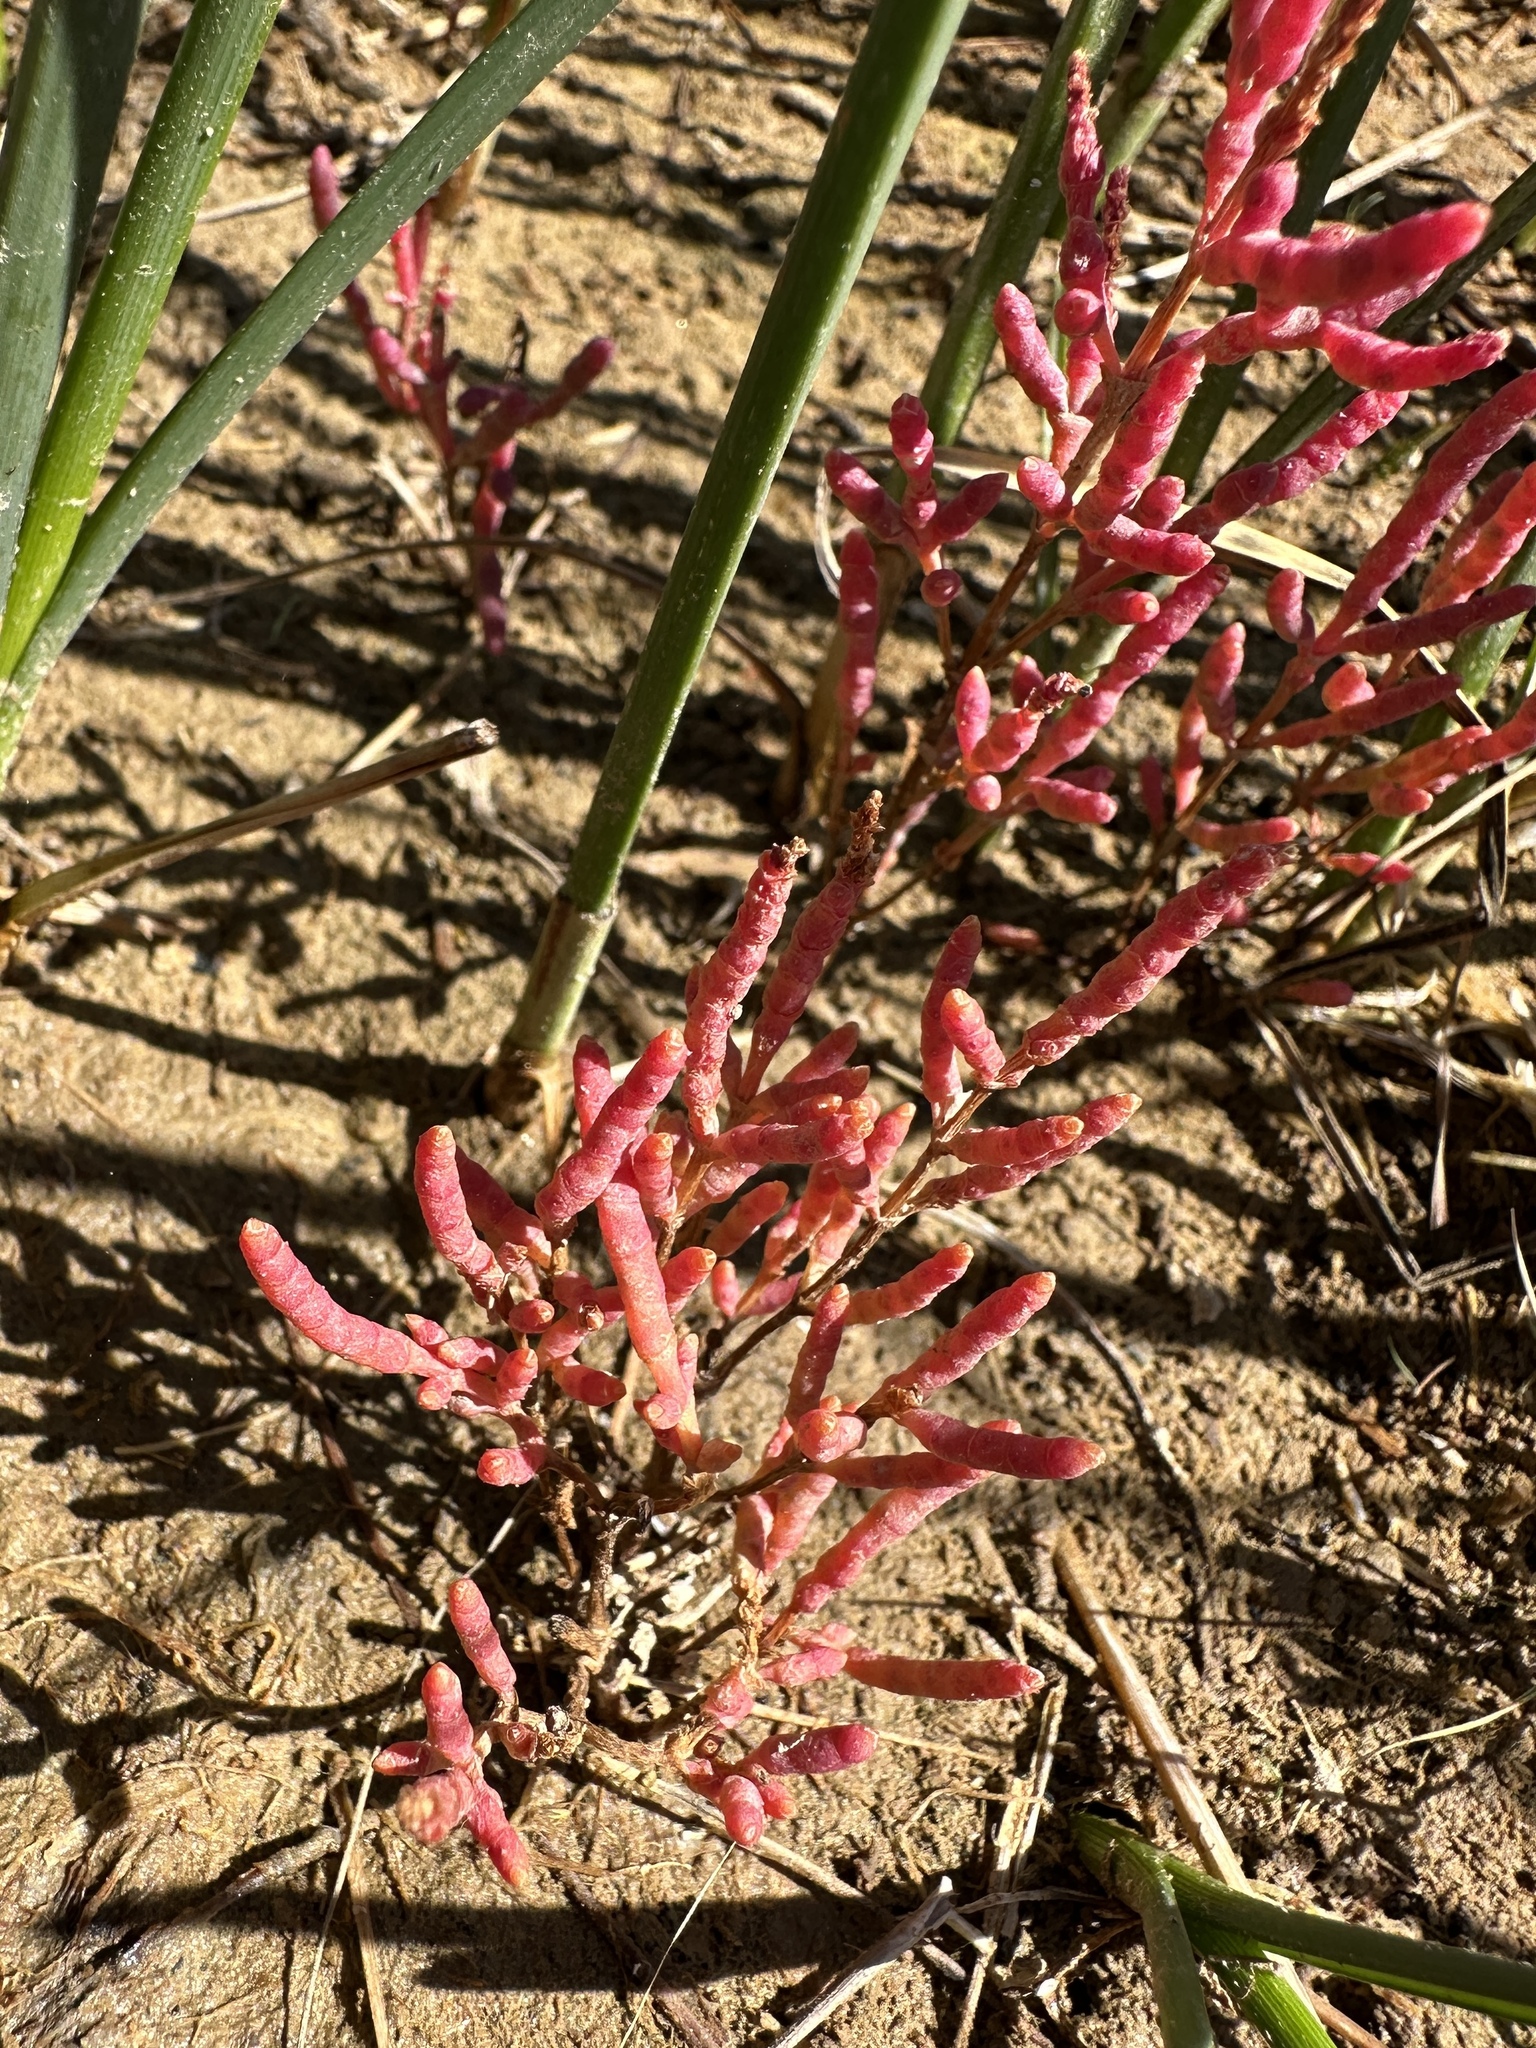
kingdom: Plantae
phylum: Tracheophyta
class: Magnoliopsida
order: Caryophyllales
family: Amaranthaceae
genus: Salicornia
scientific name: Salicornia rubra
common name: Red glasswort
